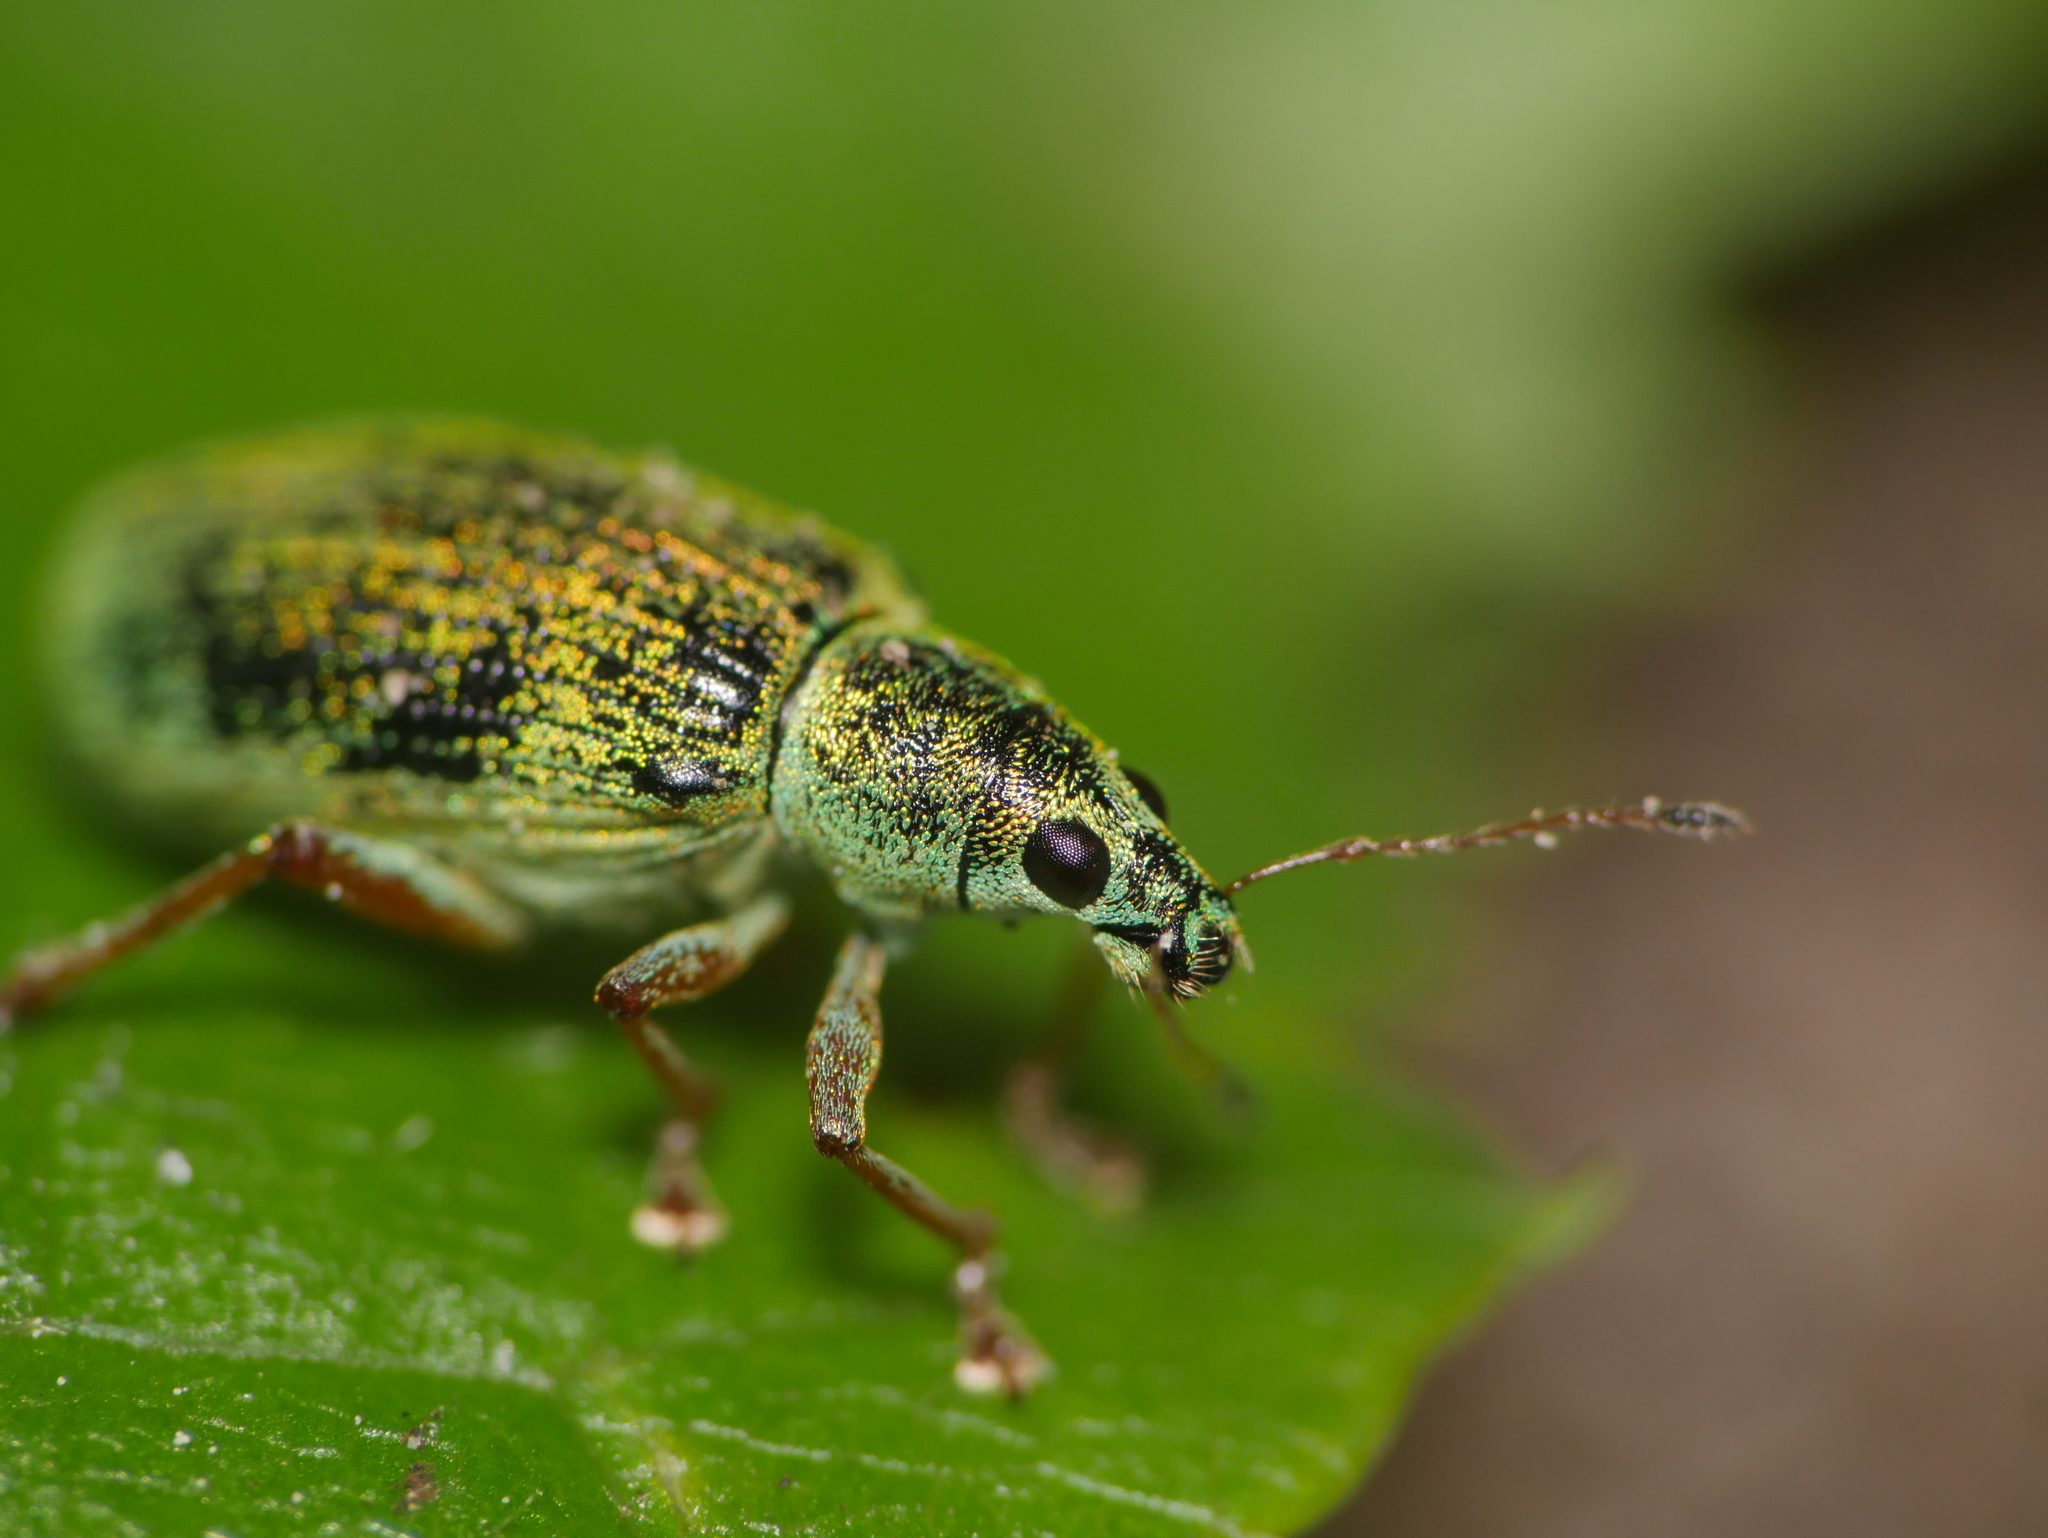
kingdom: Animalia
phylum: Arthropoda
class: Insecta
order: Coleoptera
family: Curculionidae
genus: Polydrusus
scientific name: Polydrusus formosus
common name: Weevil
